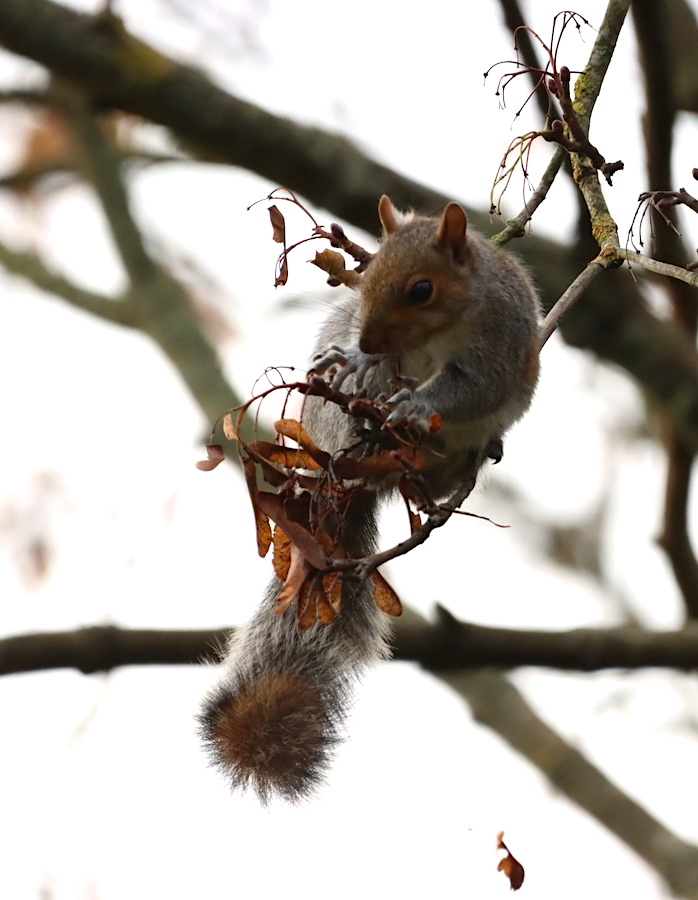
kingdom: Animalia
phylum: Chordata
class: Mammalia
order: Rodentia
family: Sciuridae
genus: Sciurus
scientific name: Sciurus carolinensis
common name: Eastern gray squirrel
